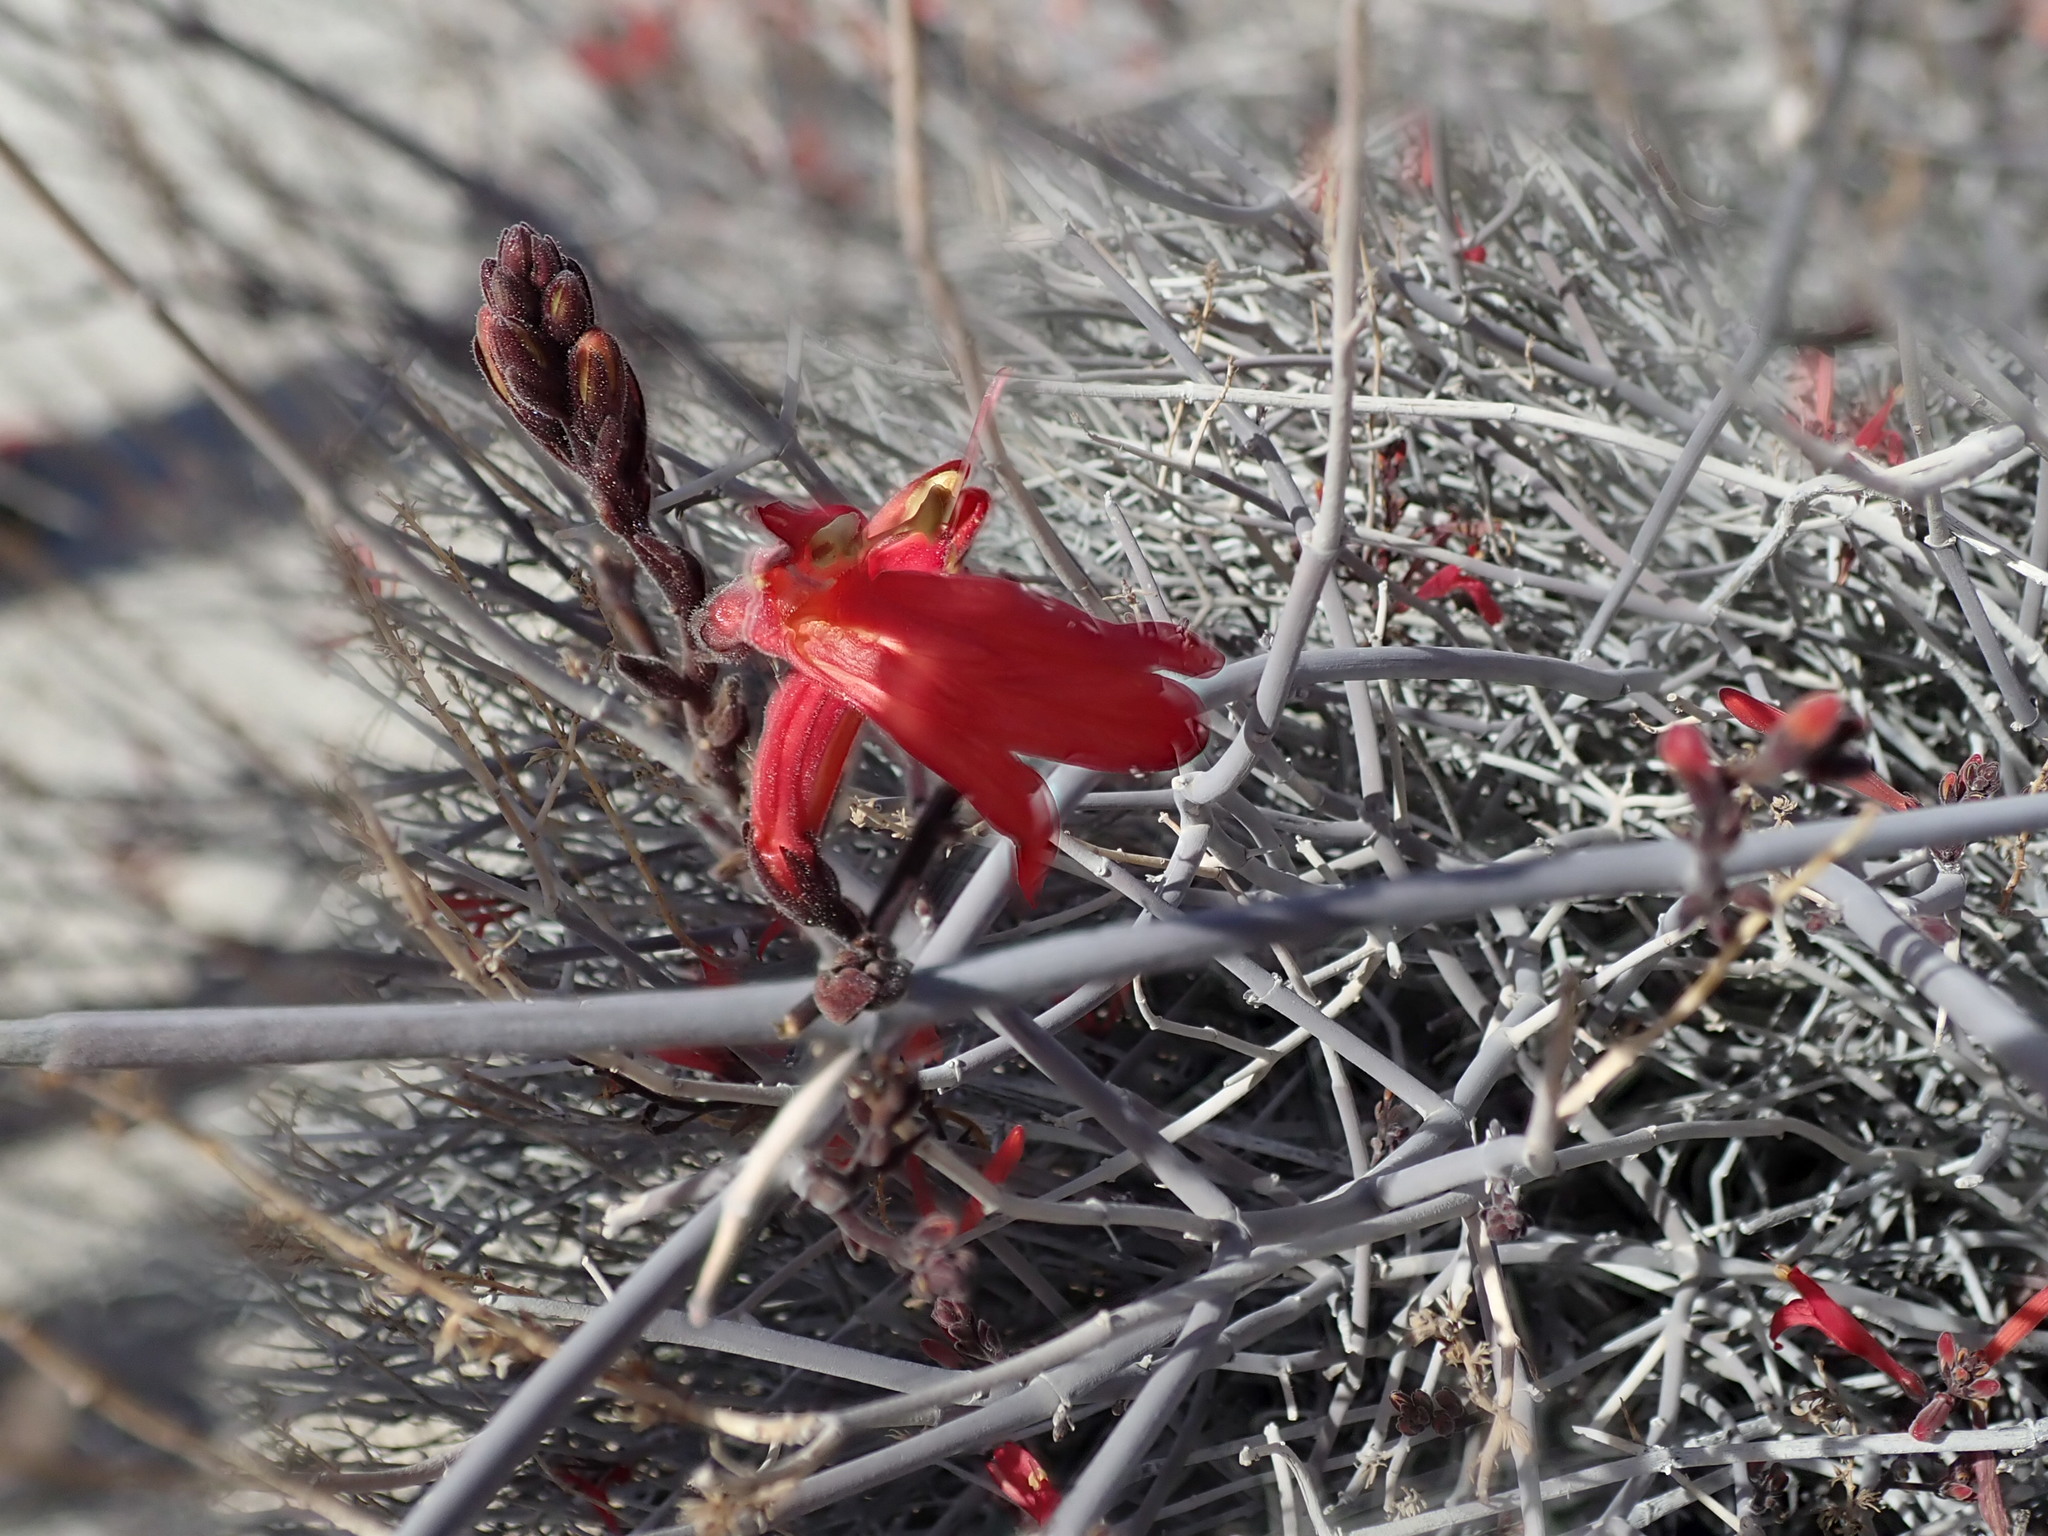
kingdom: Plantae
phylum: Tracheophyta
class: Magnoliopsida
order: Lamiales
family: Acanthaceae
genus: Justicia
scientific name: Justicia californica
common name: Chuparosa-honeysuckle
